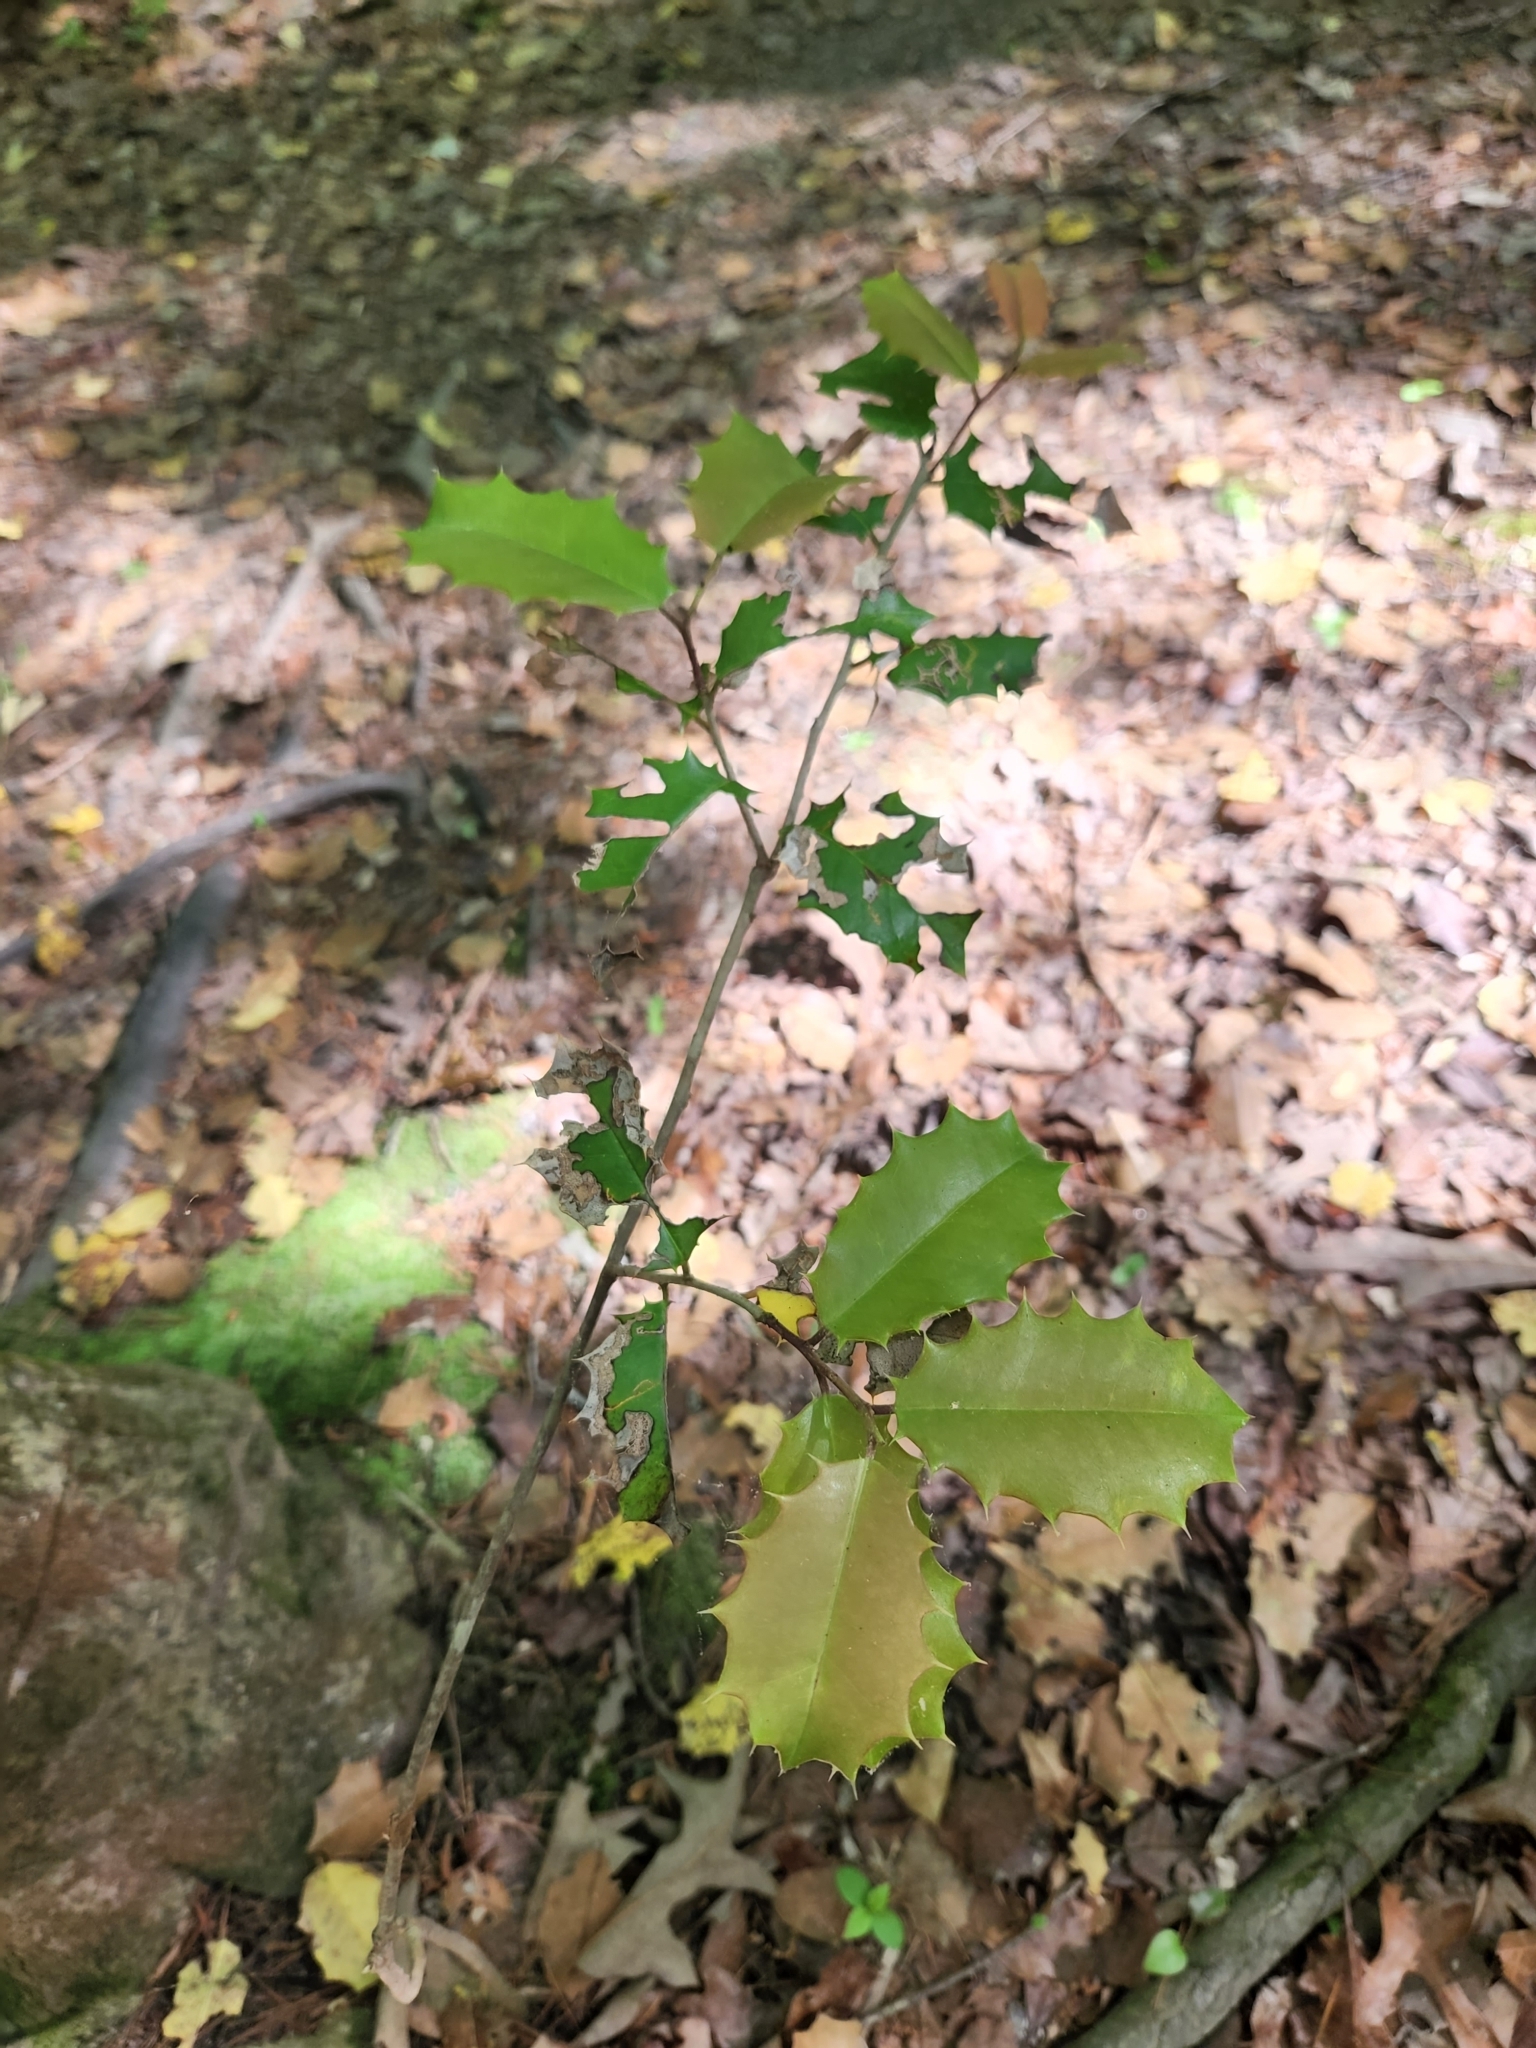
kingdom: Plantae
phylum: Tracheophyta
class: Magnoliopsida
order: Aquifoliales
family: Aquifoliaceae
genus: Ilex
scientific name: Ilex opaca
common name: American holly
